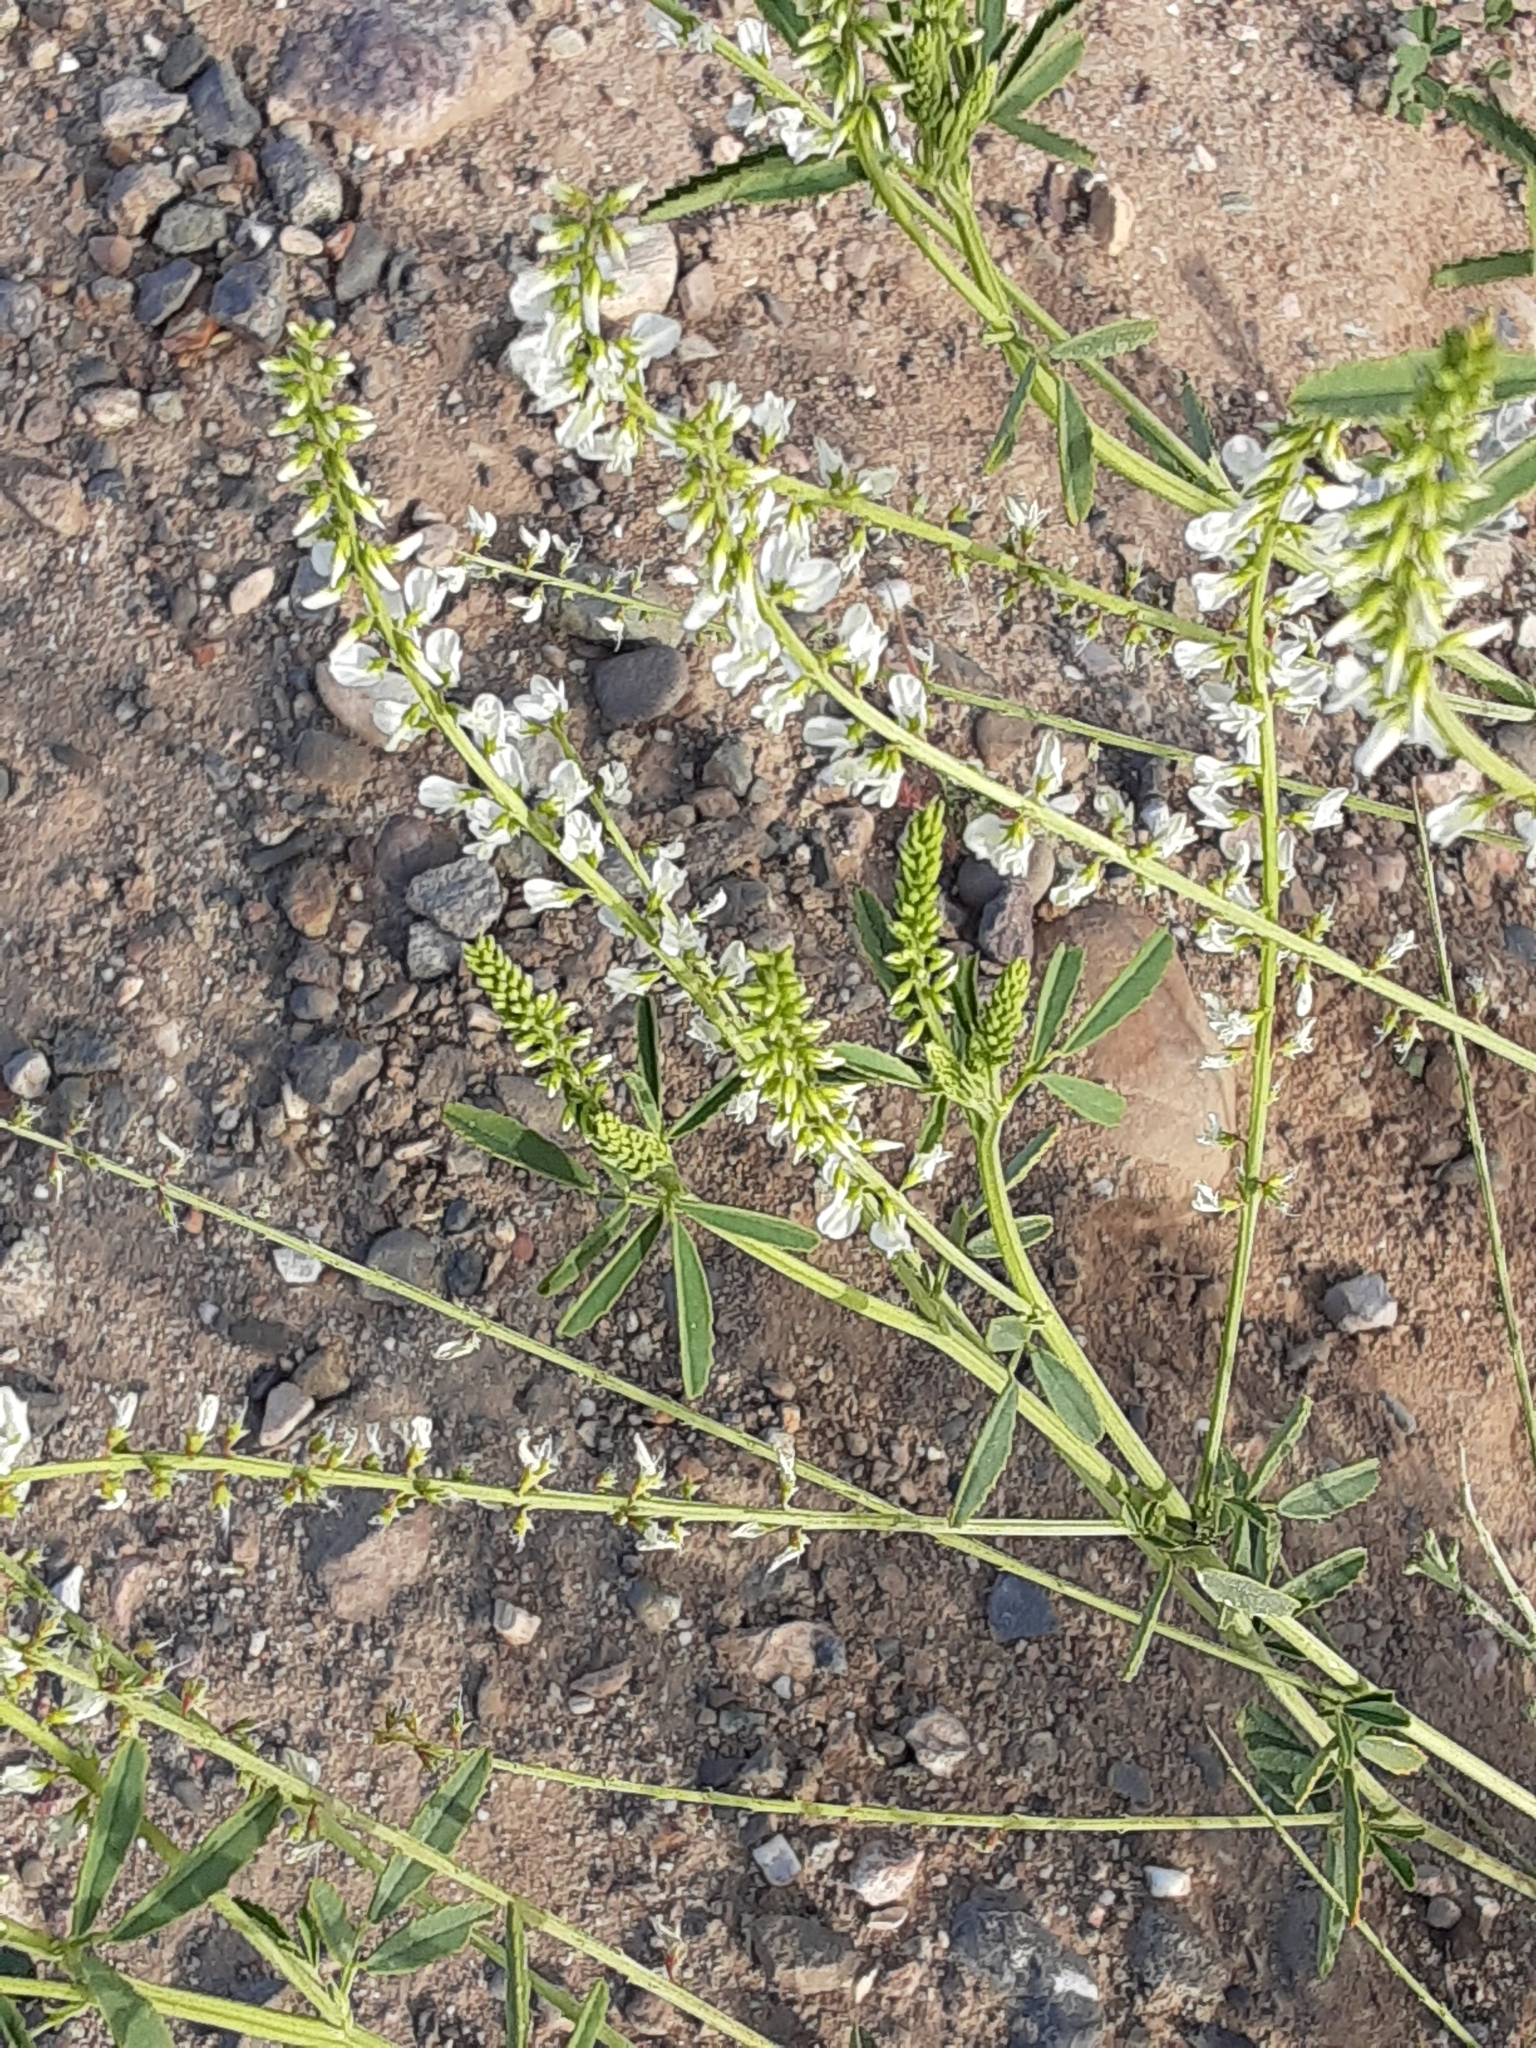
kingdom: Plantae
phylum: Tracheophyta
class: Magnoliopsida
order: Fabales
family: Fabaceae
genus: Melilotus
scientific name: Melilotus albus
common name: White melilot
